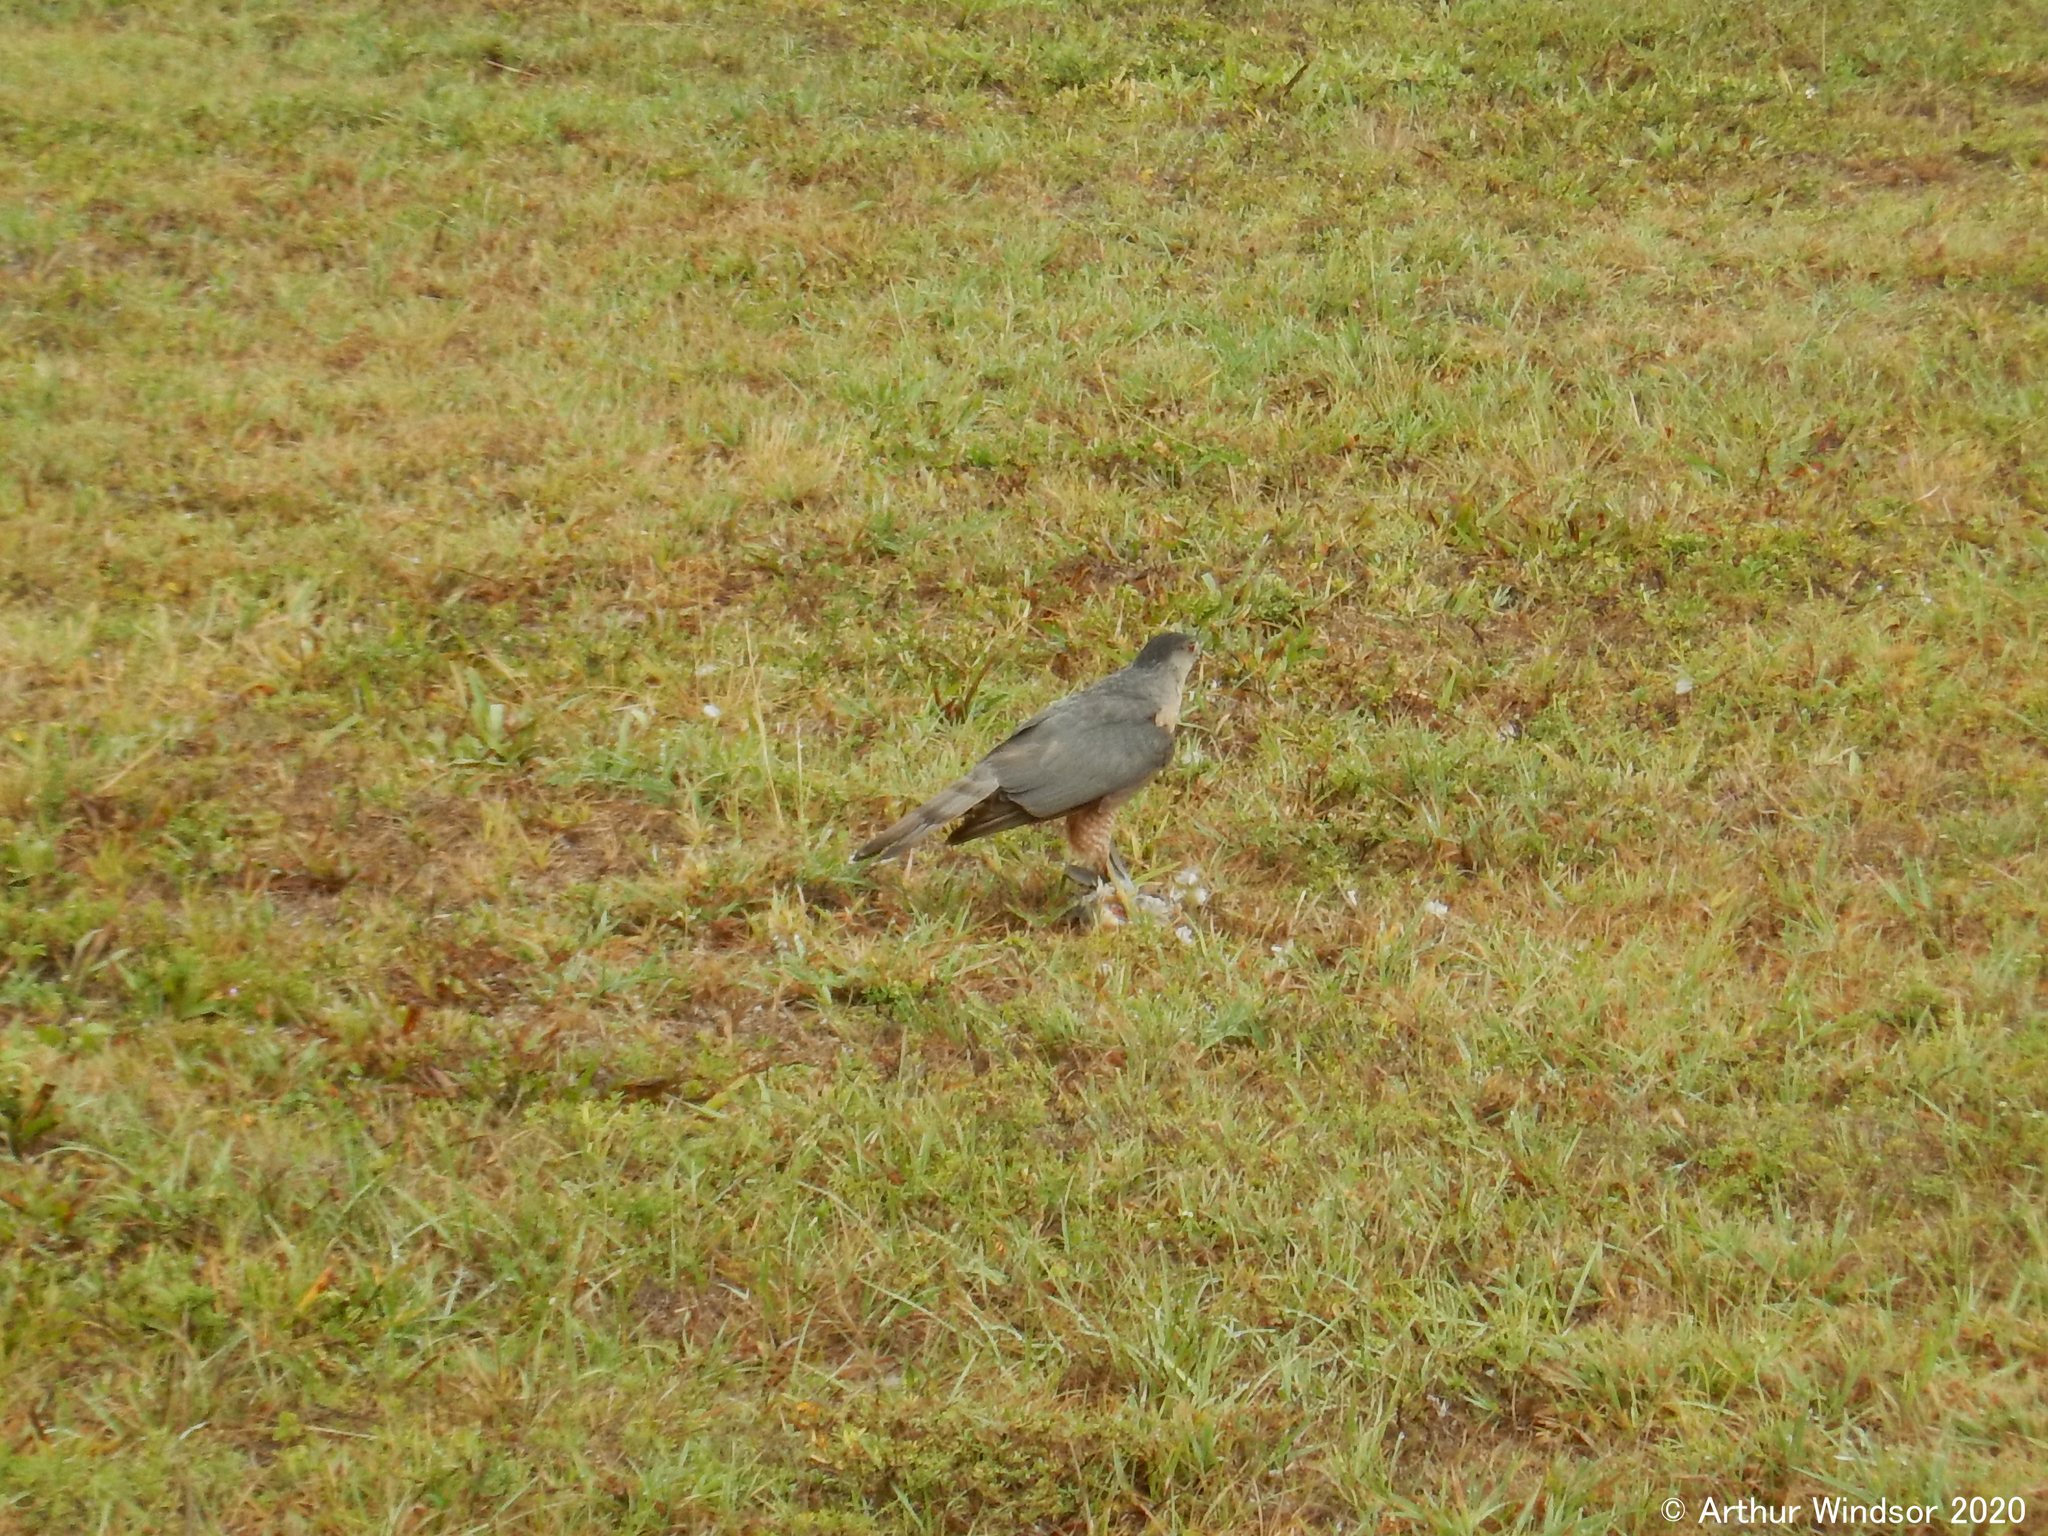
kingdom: Animalia
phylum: Chordata
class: Aves
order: Accipitriformes
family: Accipitridae
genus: Accipiter
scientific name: Accipiter cooperii
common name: Cooper's hawk
